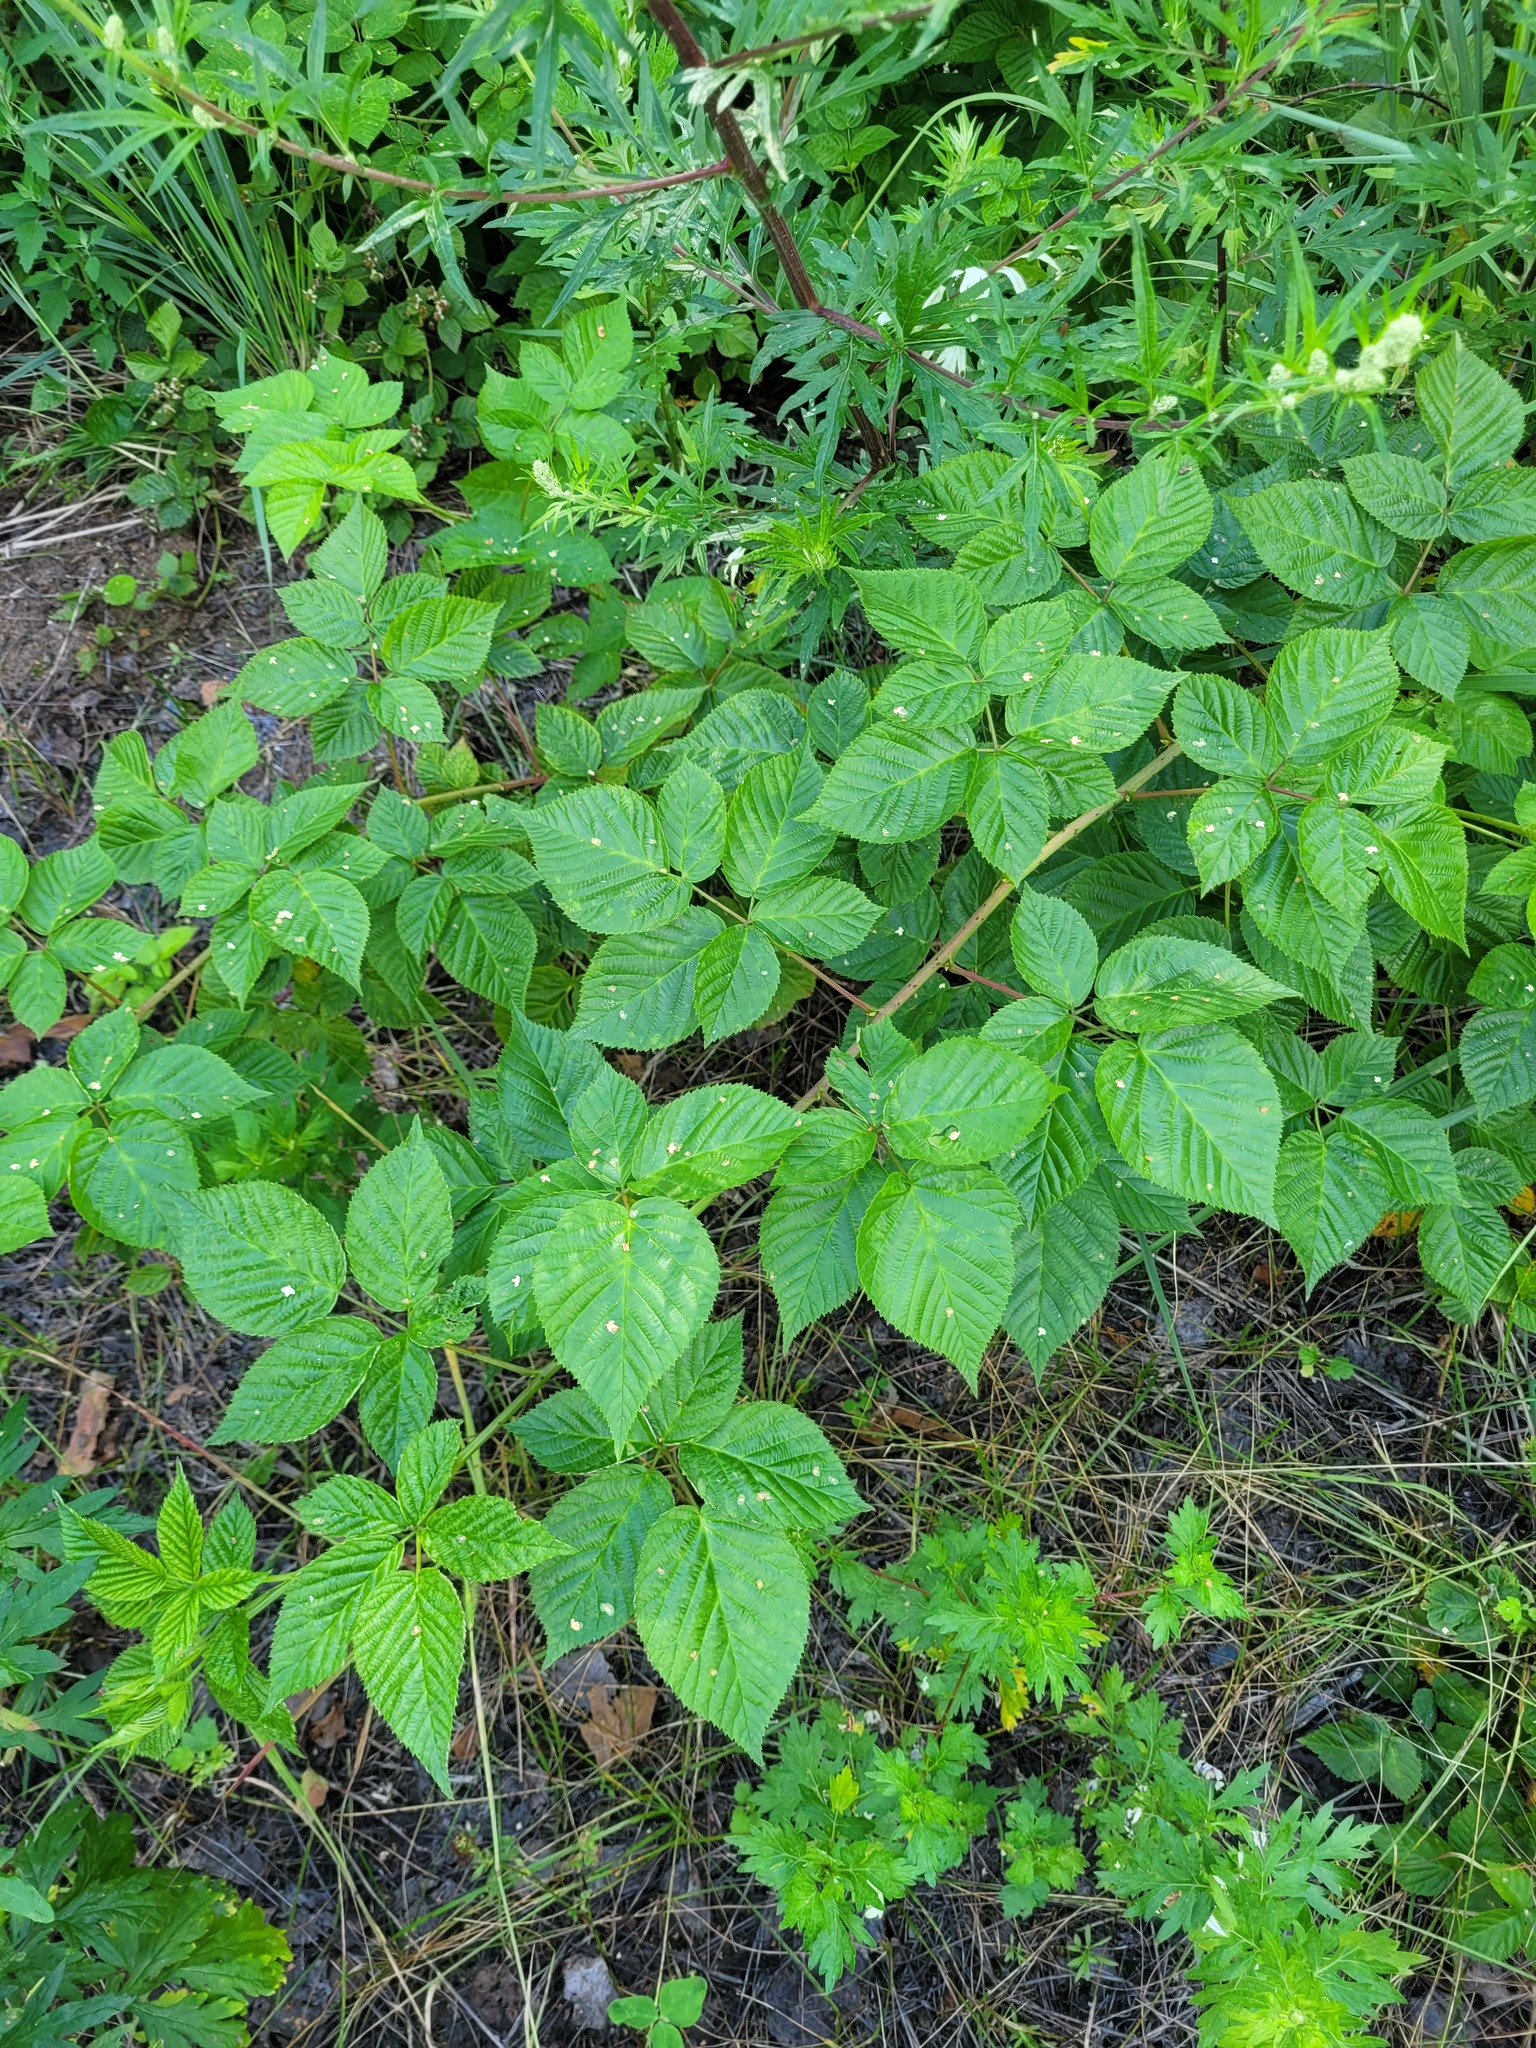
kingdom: Plantae
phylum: Tracheophyta
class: Magnoliopsida
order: Rosales
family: Rosaceae
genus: Rubus
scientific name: Rubus polonicus
